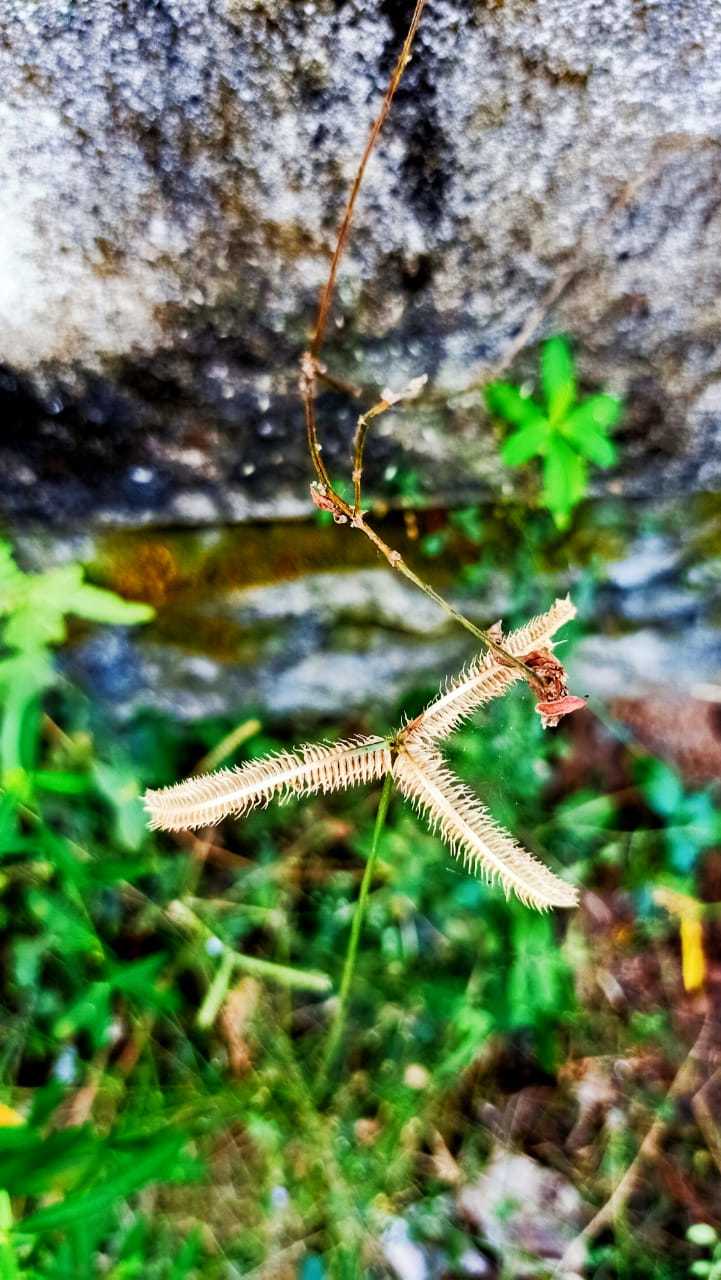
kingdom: Plantae
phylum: Tracheophyta
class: Liliopsida
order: Poales
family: Poaceae
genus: Dactyloctenium
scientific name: Dactyloctenium aegyptium
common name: Egyptian grass
